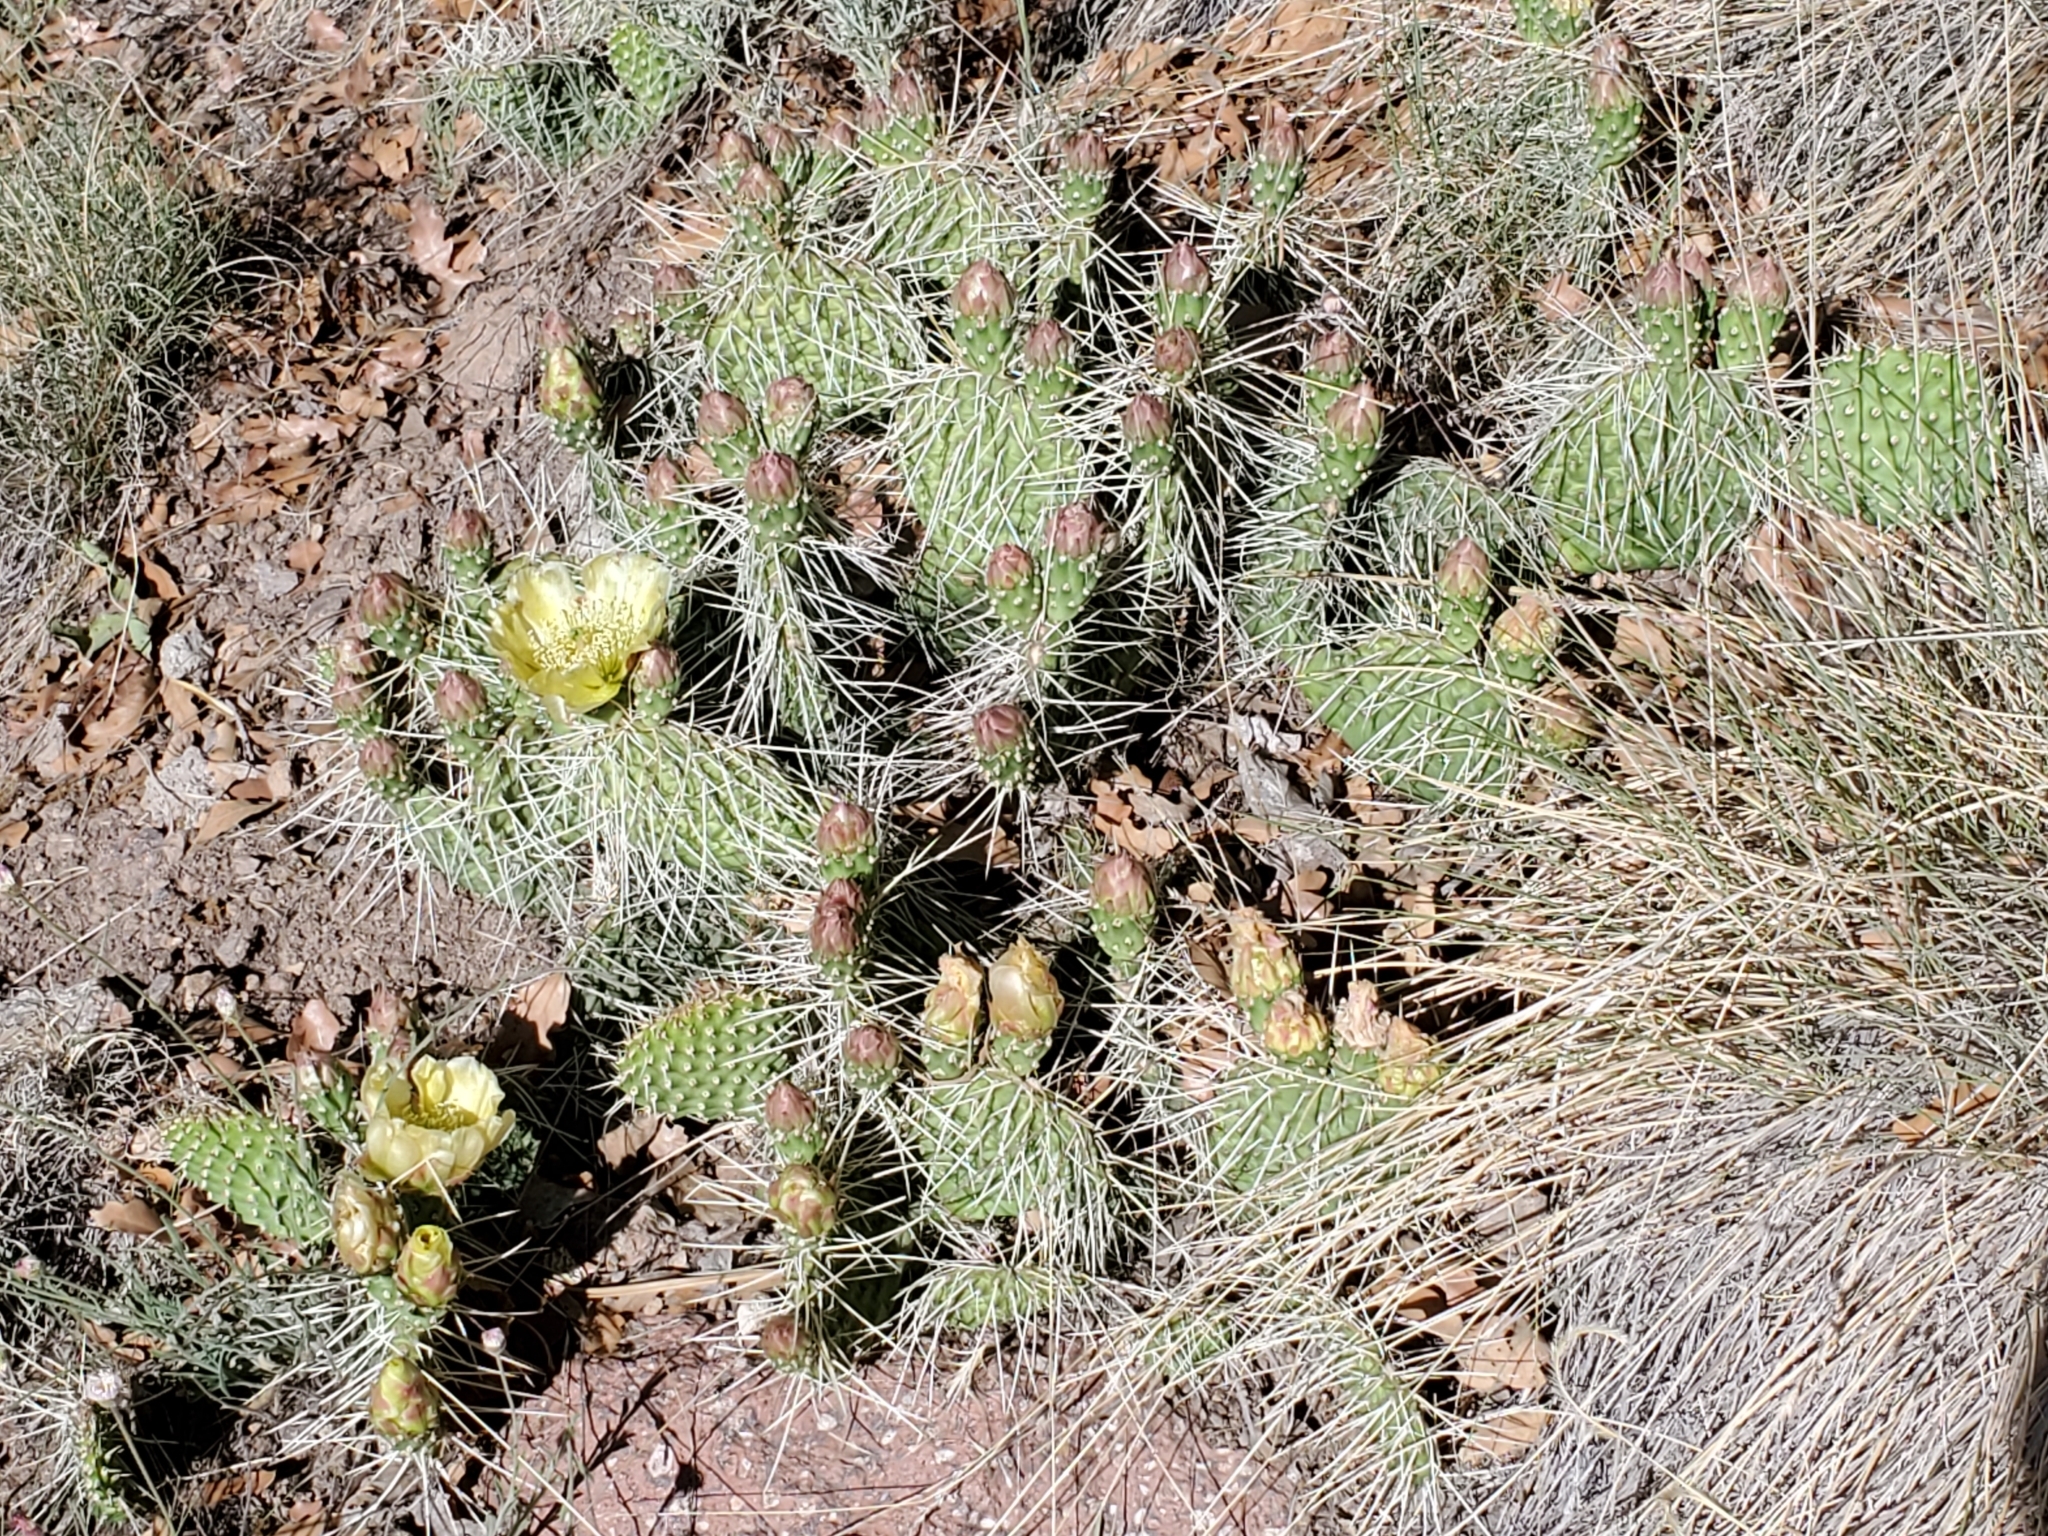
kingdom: Plantae
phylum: Tracheophyta
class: Magnoliopsida
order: Caryophyllales
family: Cactaceae
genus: Opuntia
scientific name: Opuntia polyacantha
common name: Plains prickly-pear
